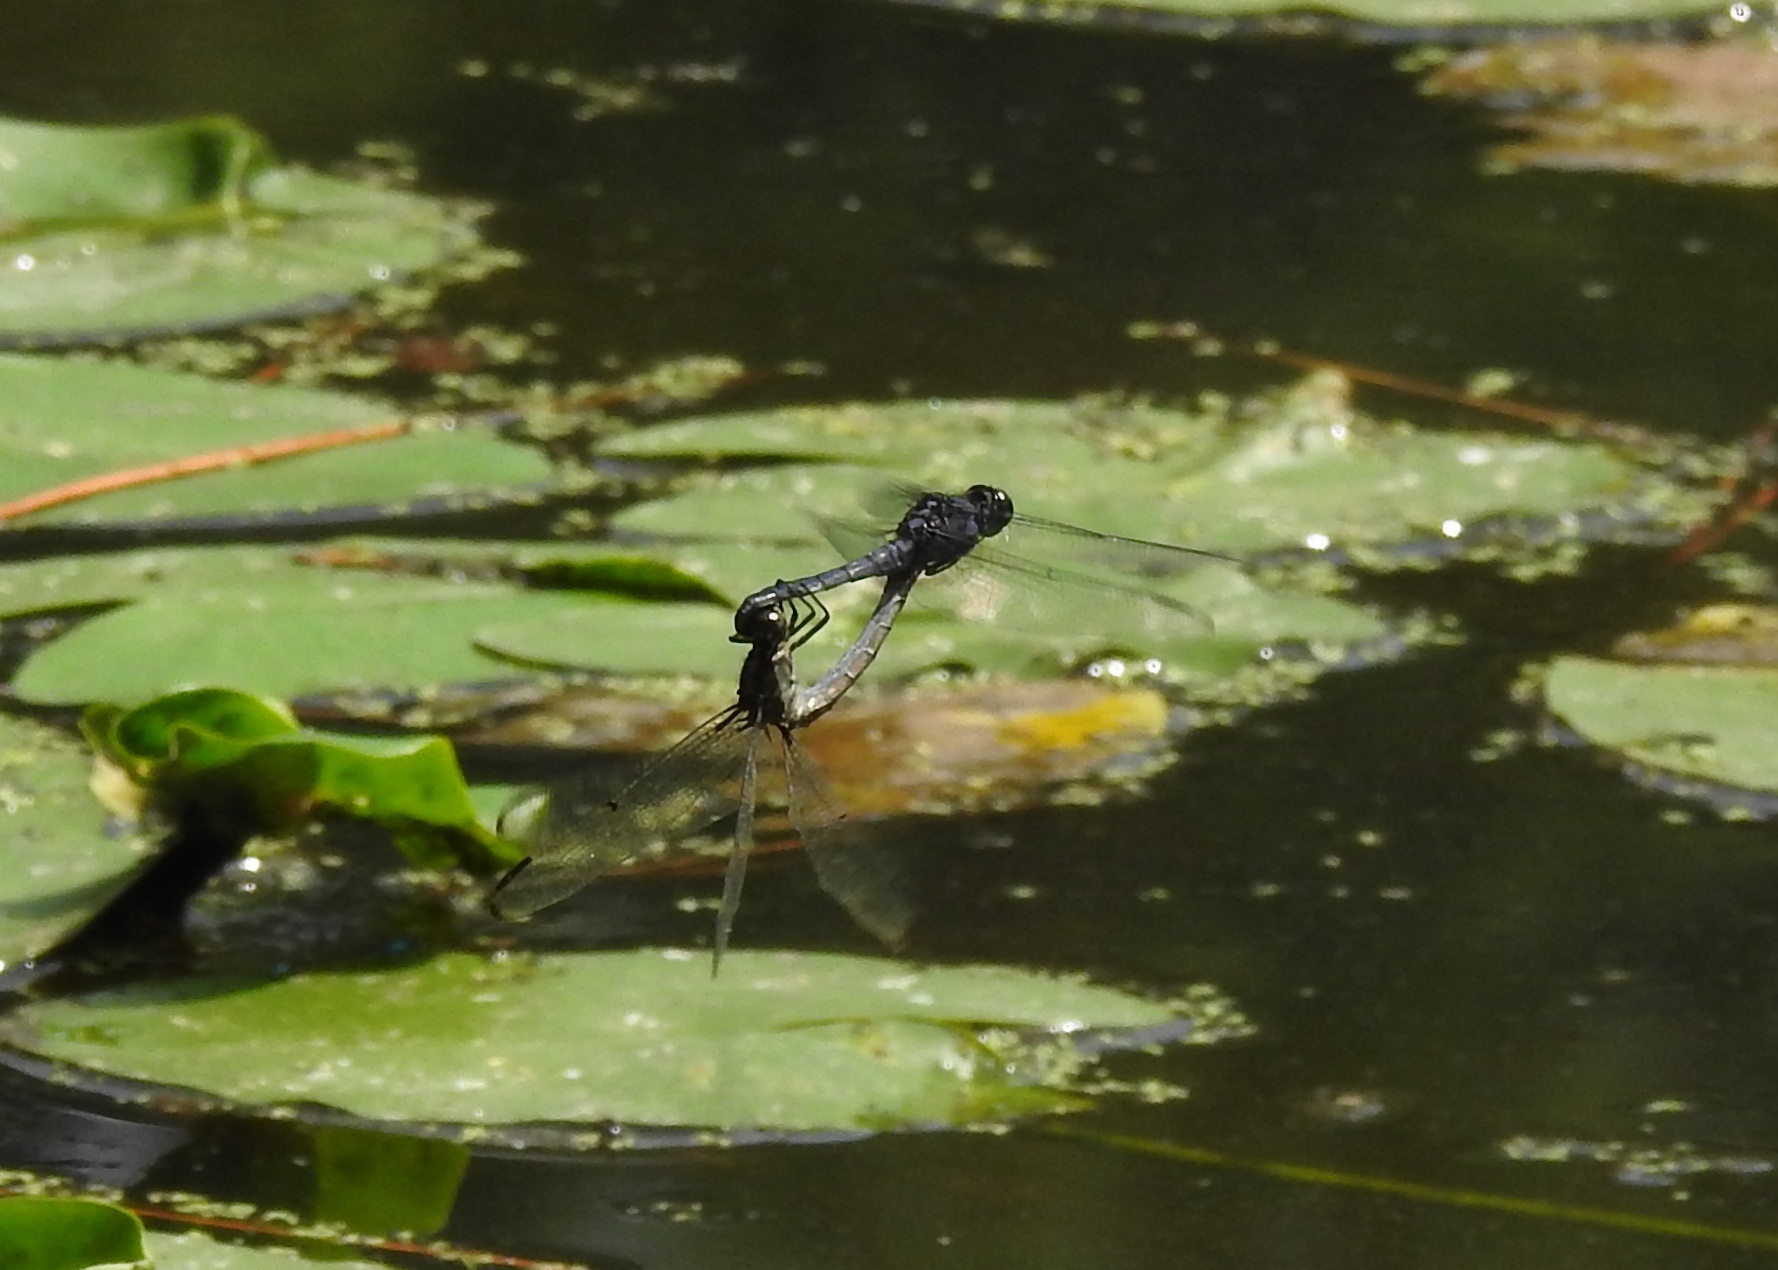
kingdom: Animalia
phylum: Arthropoda
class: Insecta
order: Odonata
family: Libellulidae
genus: Libellula
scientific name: Libellula incesta
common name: Slaty skimmer
